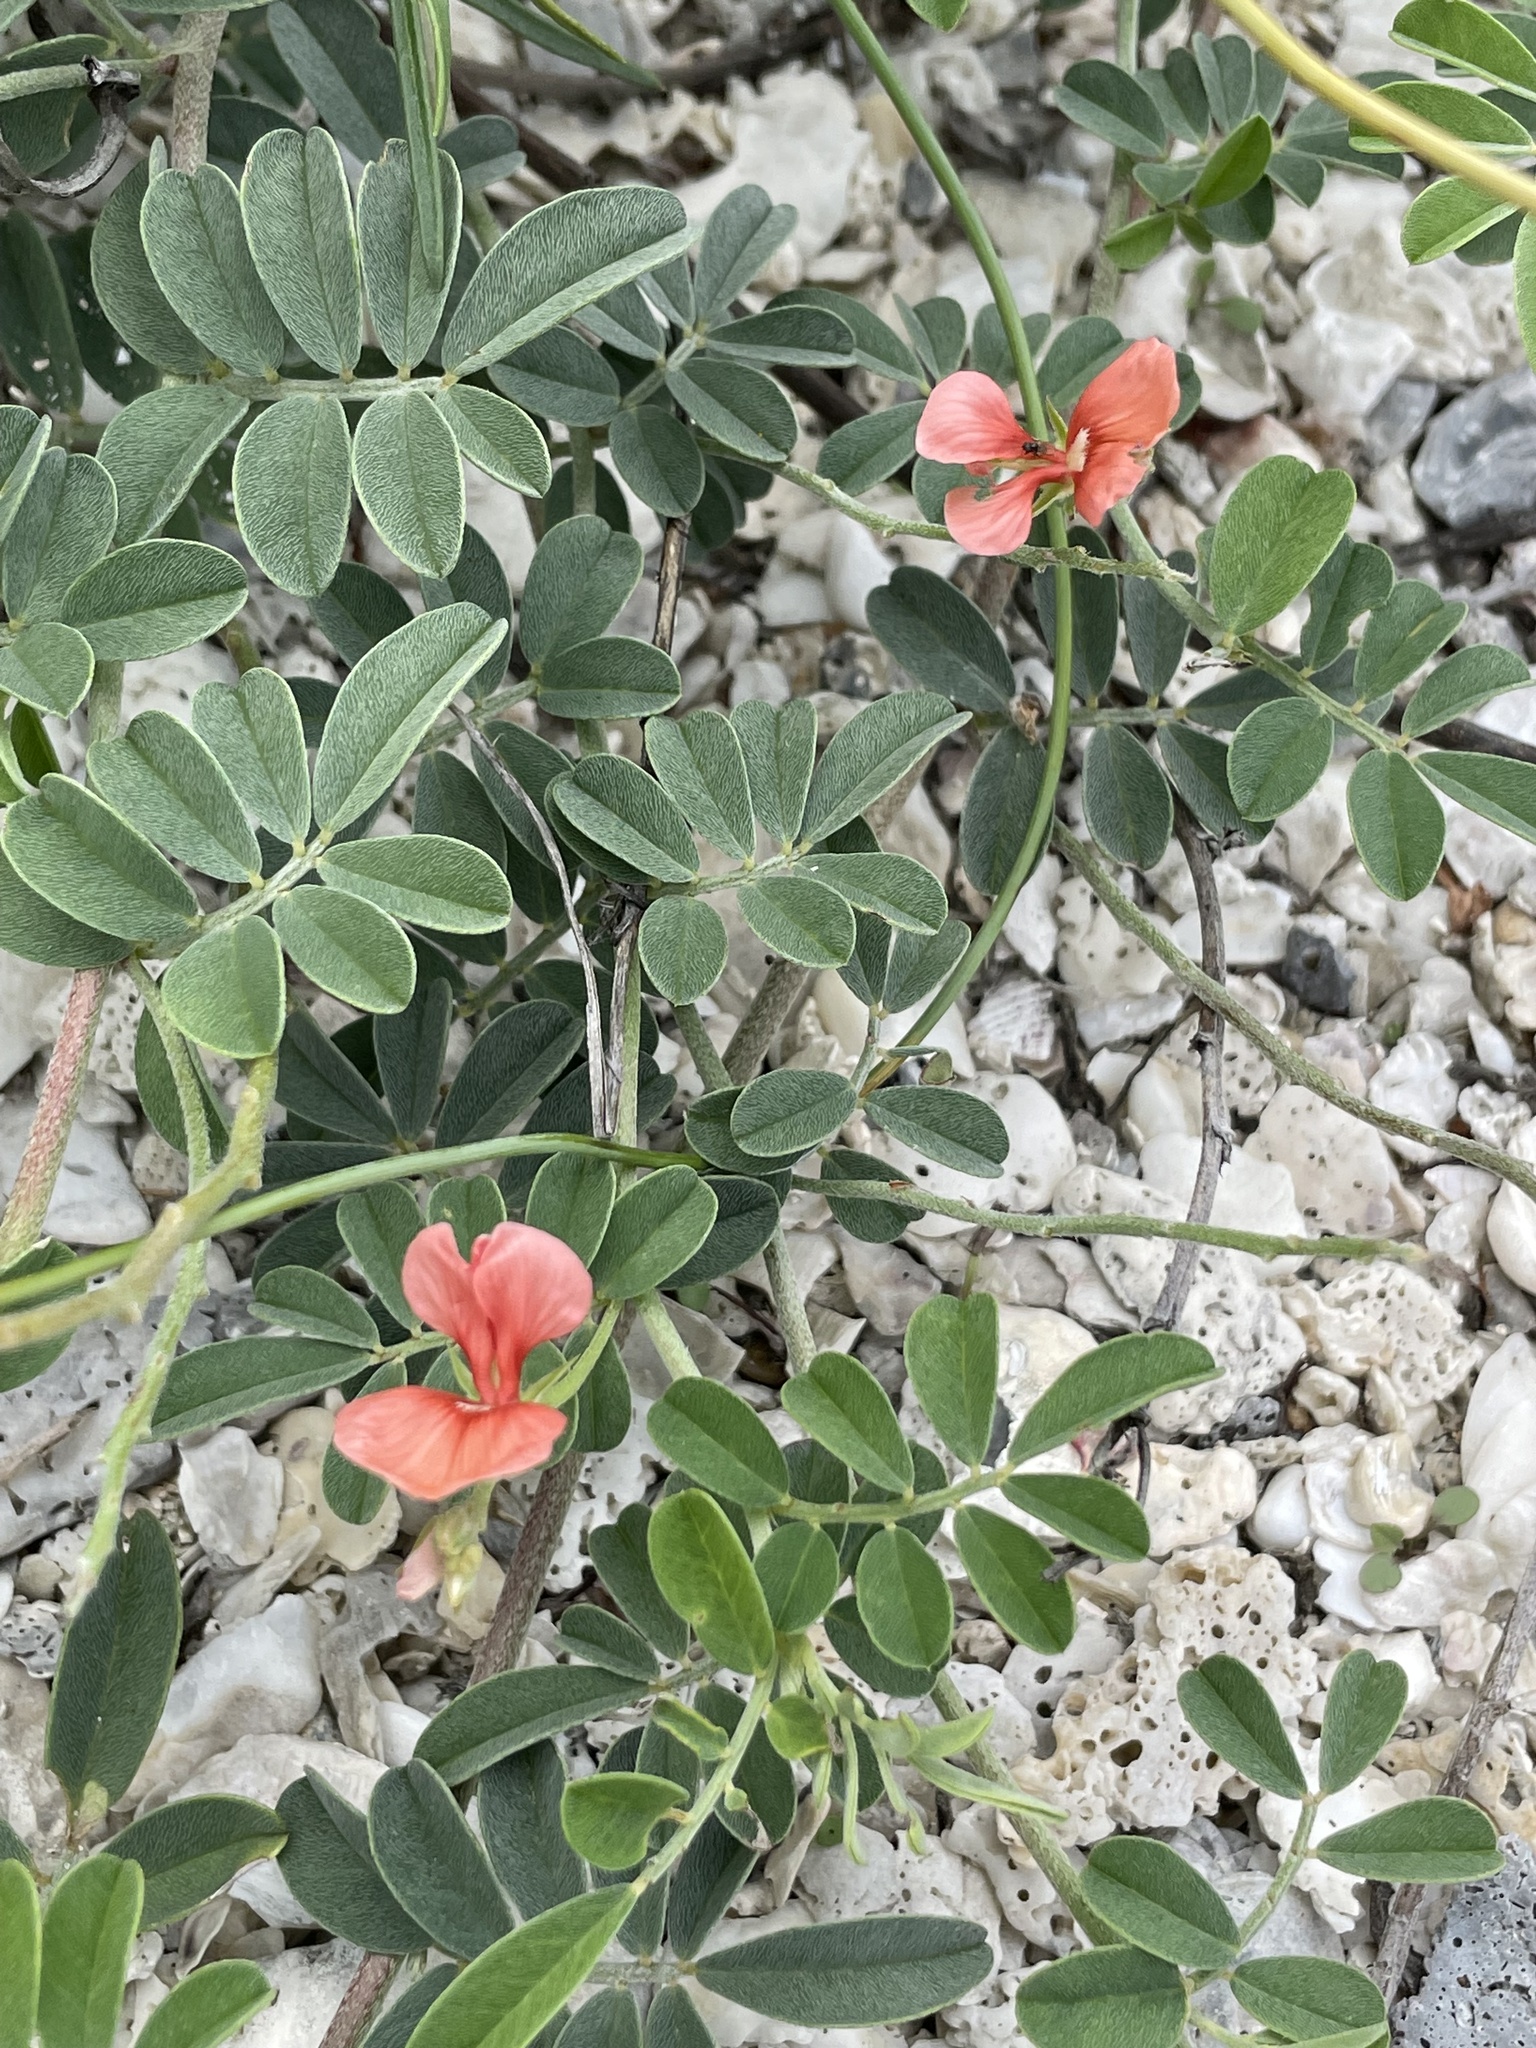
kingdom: Plantae
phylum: Tracheophyta
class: Magnoliopsida
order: Fabales
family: Fabaceae
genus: Indigofera
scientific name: Indigofera miniata
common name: Coast indigo
